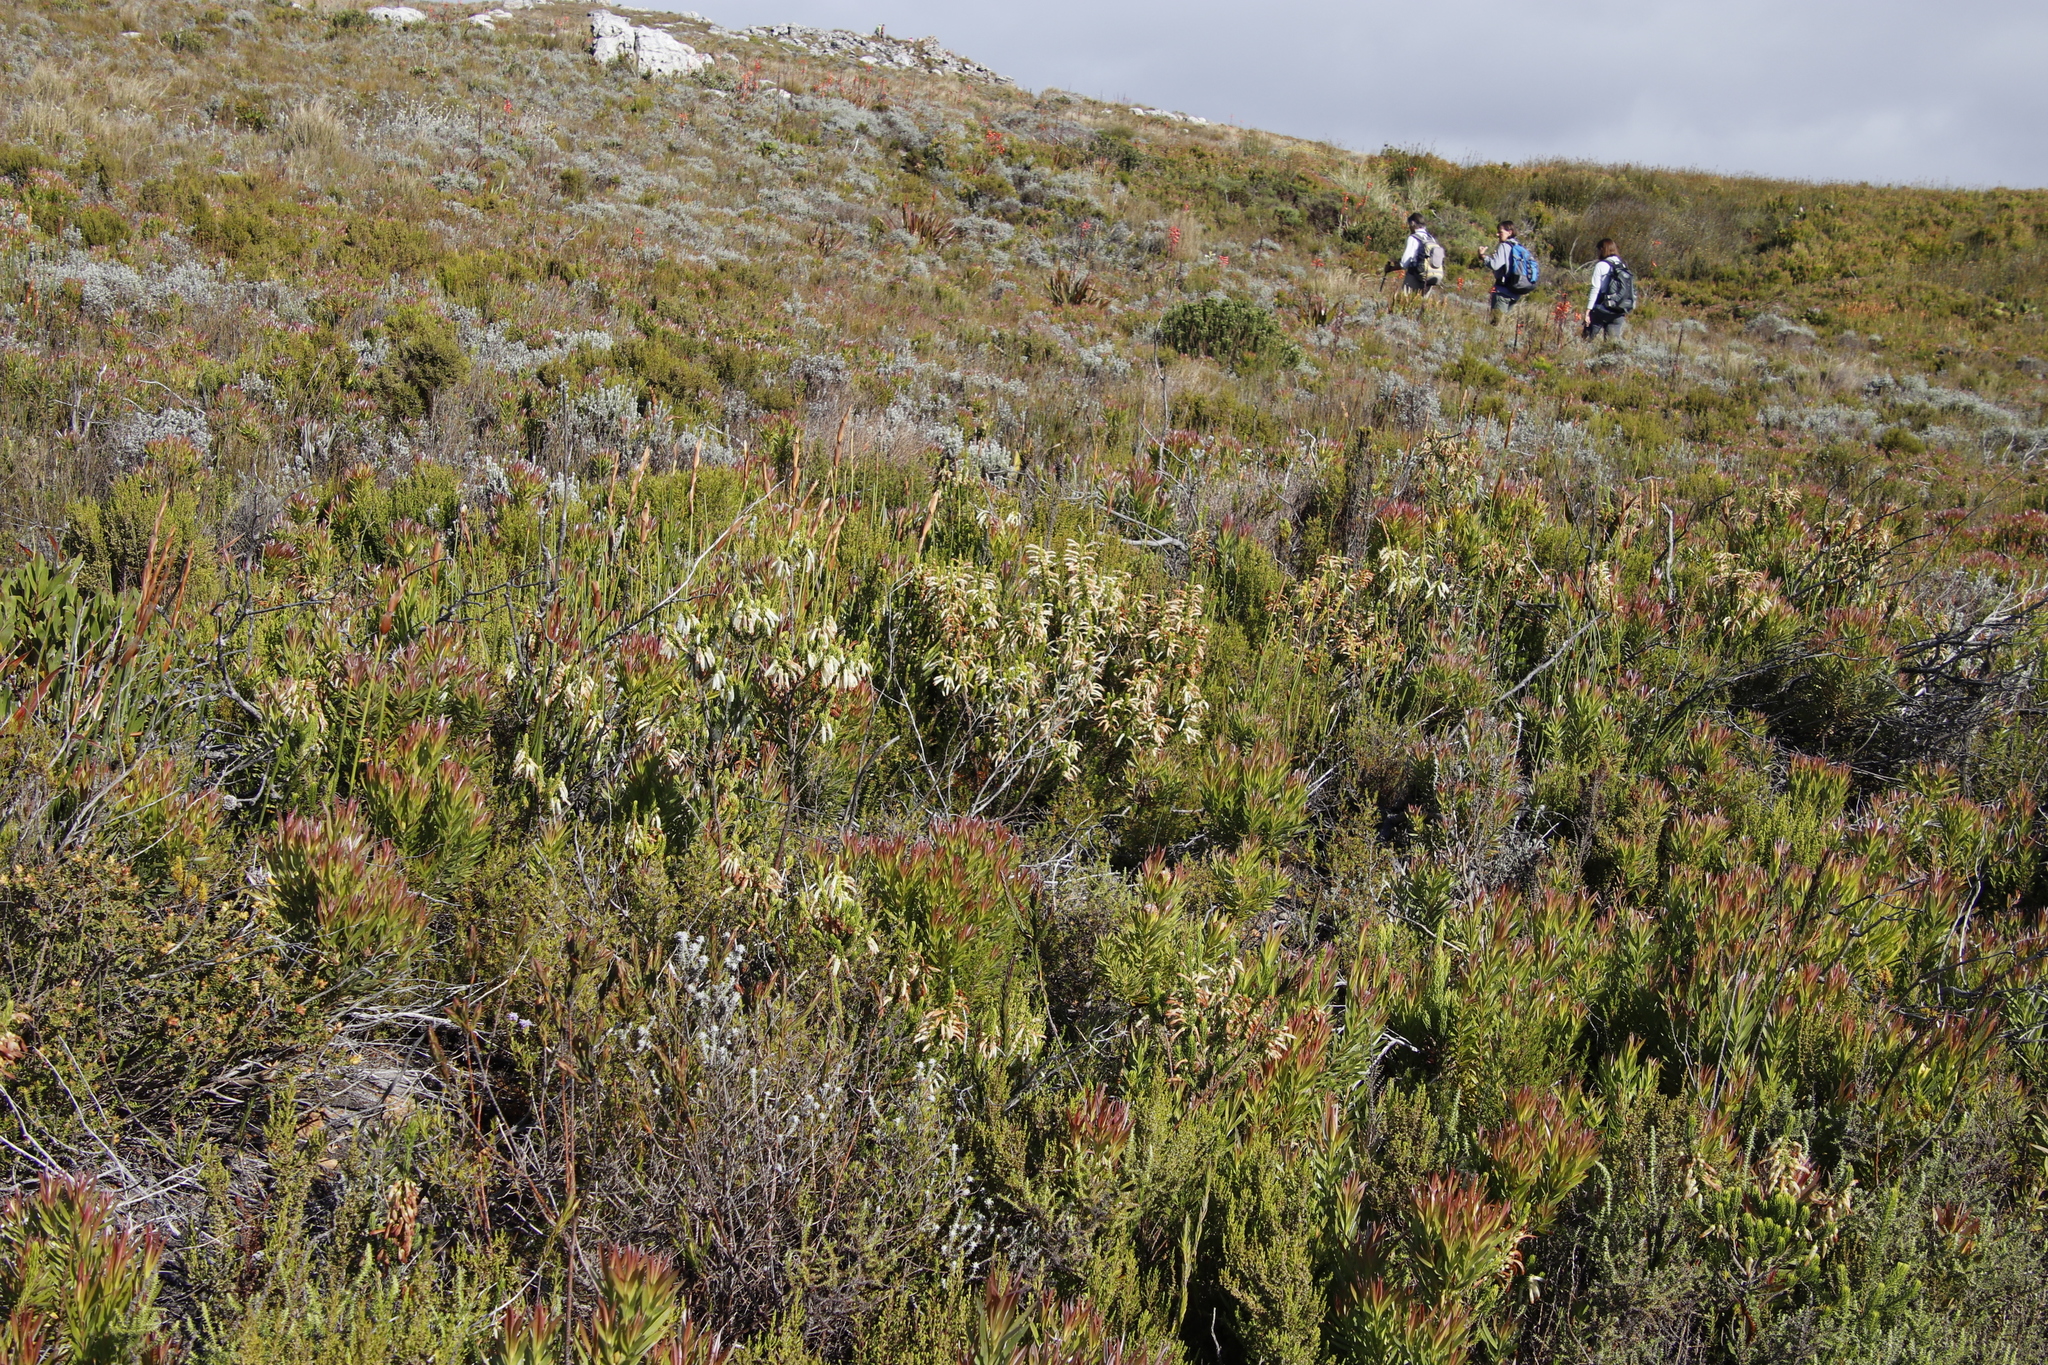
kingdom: Plantae
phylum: Tracheophyta
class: Magnoliopsida
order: Ericales
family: Ericaceae
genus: Erica
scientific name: Erica mammosa
